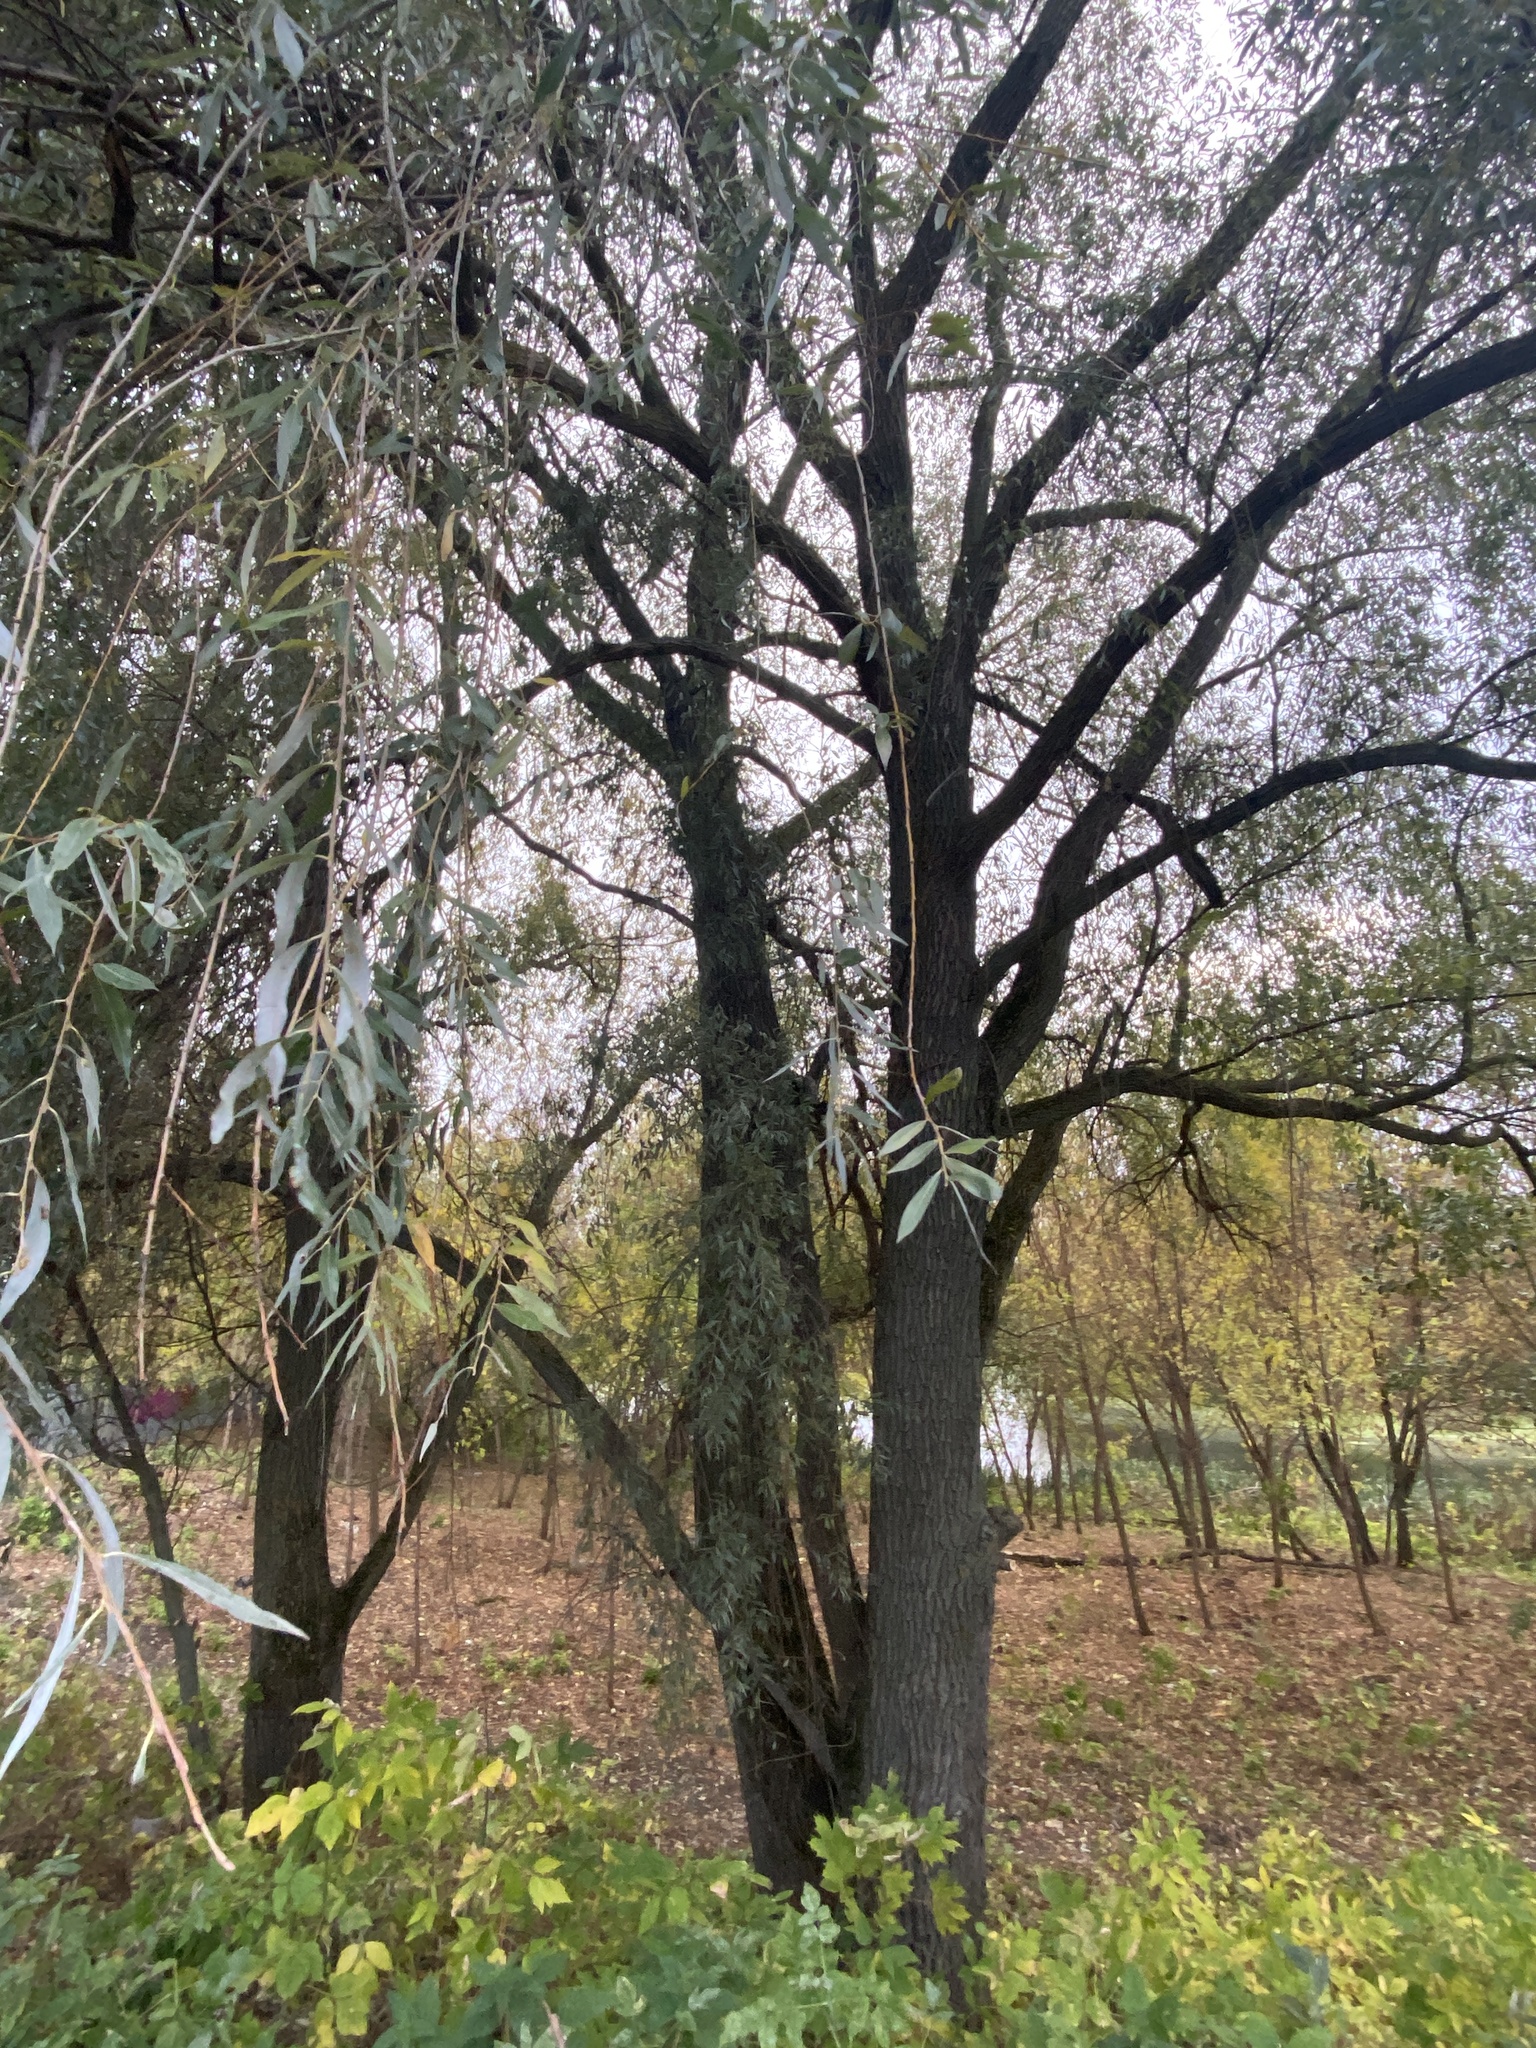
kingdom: Plantae
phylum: Tracheophyta
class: Magnoliopsida
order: Malpighiales
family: Salicaceae
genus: Salix
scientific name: Salix alba
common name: White willow
